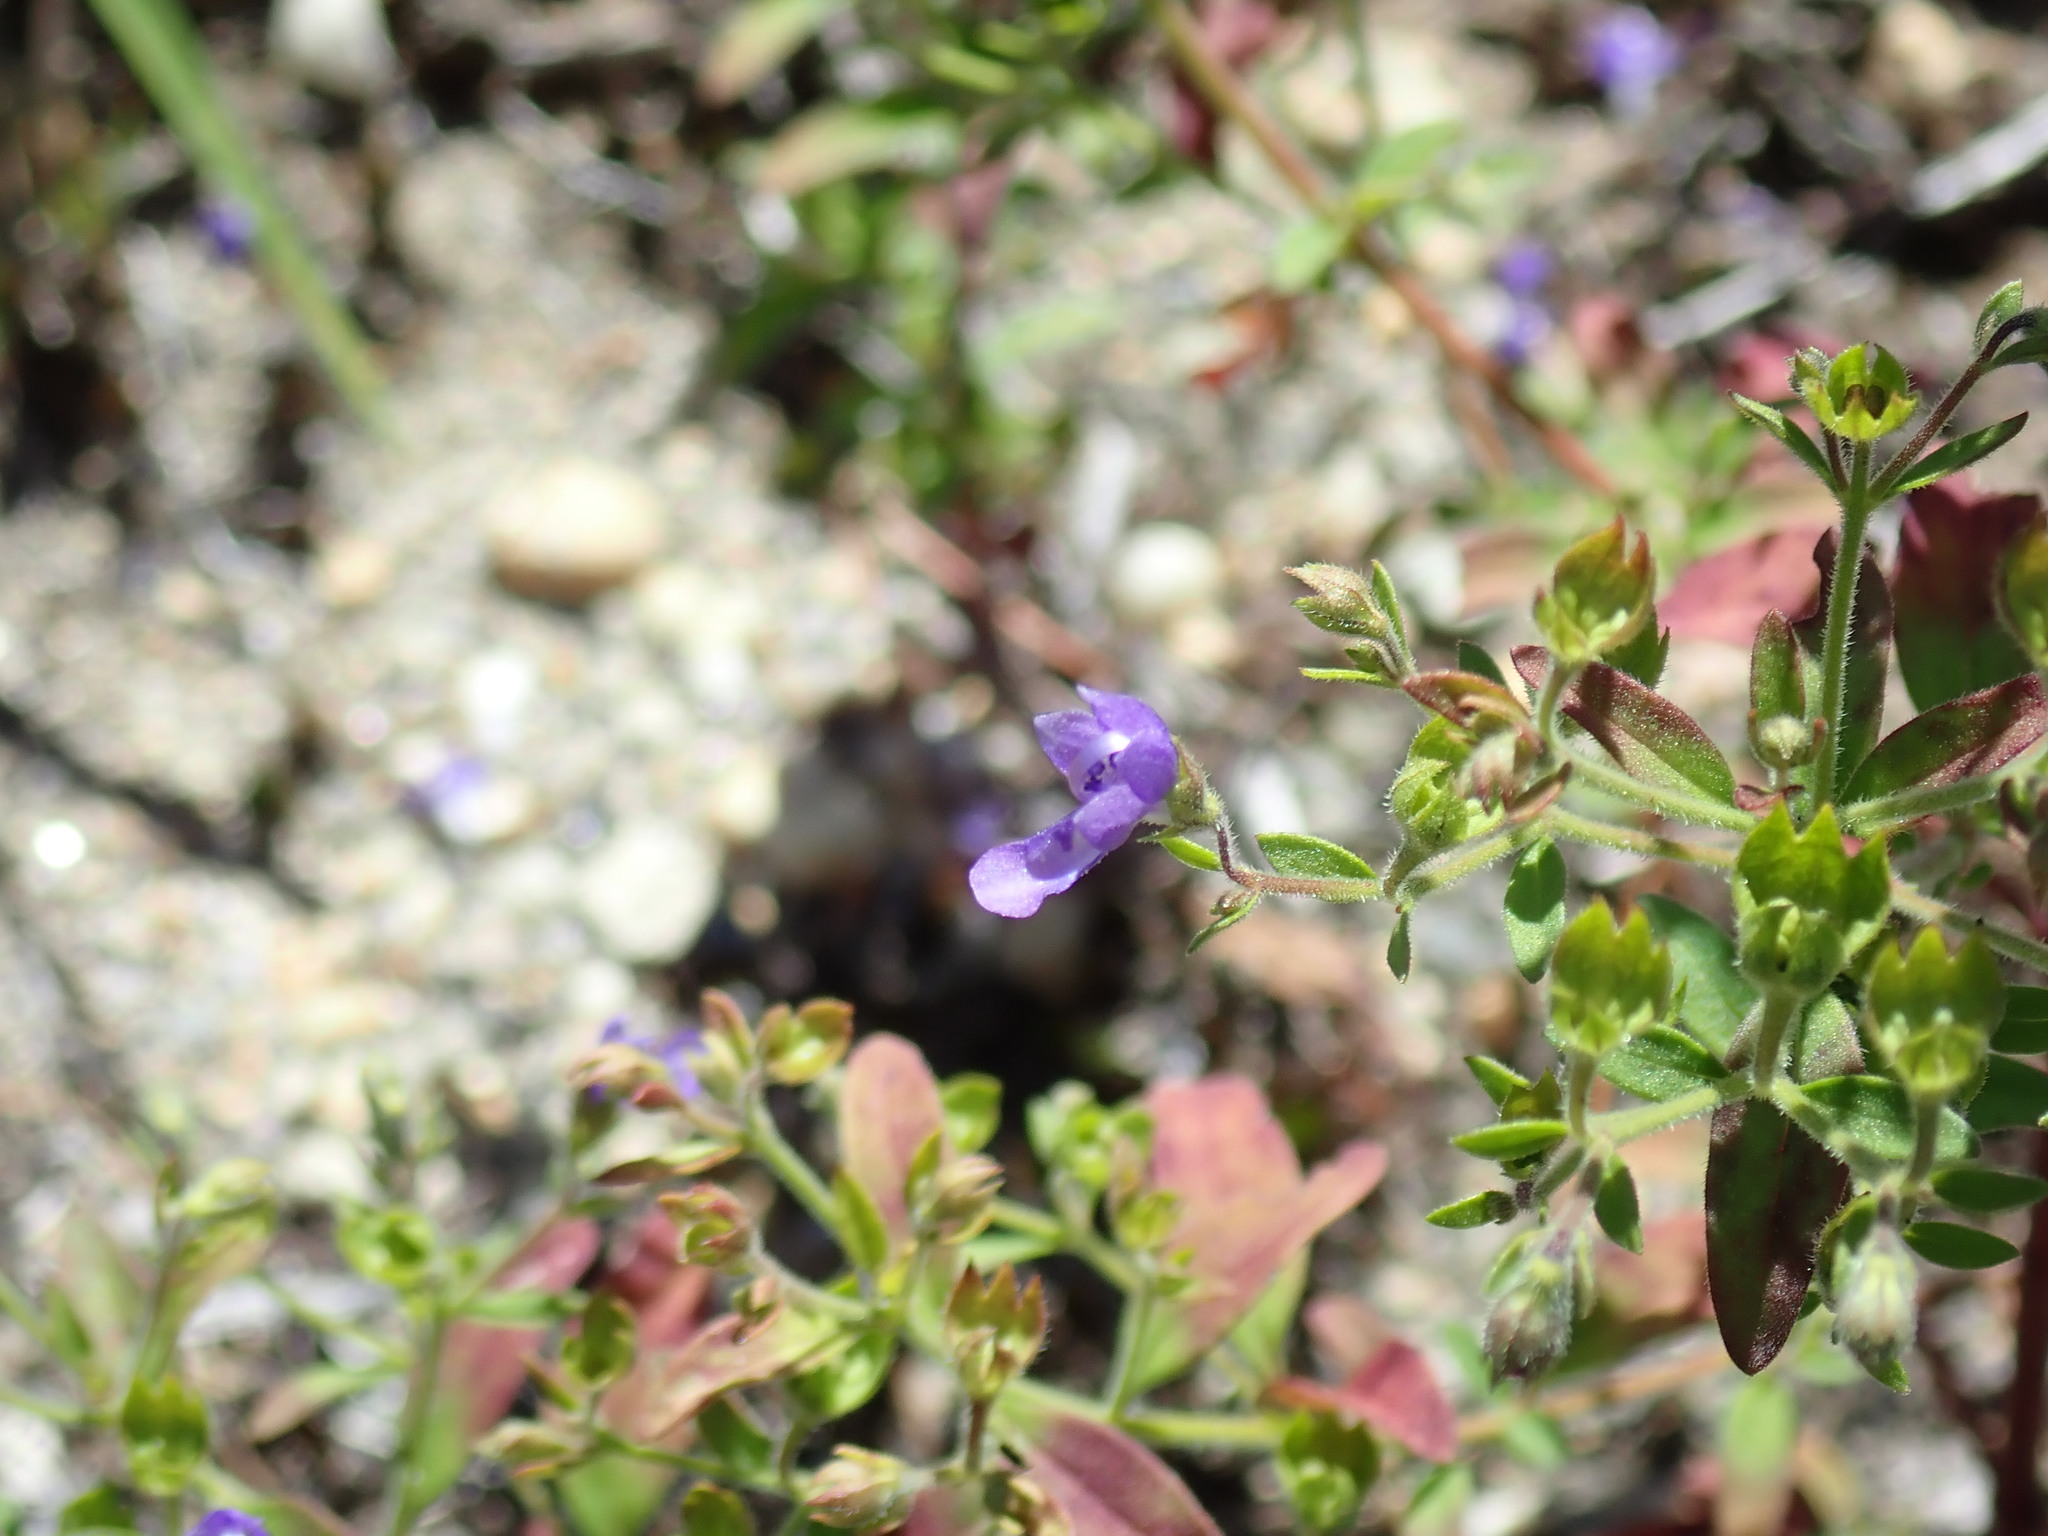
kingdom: Plantae
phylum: Tracheophyta
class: Magnoliopsida
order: Lamiales
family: Lamiaceae
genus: Trichostema
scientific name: Trichostema dichotomum
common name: Bastard pennyroyal
